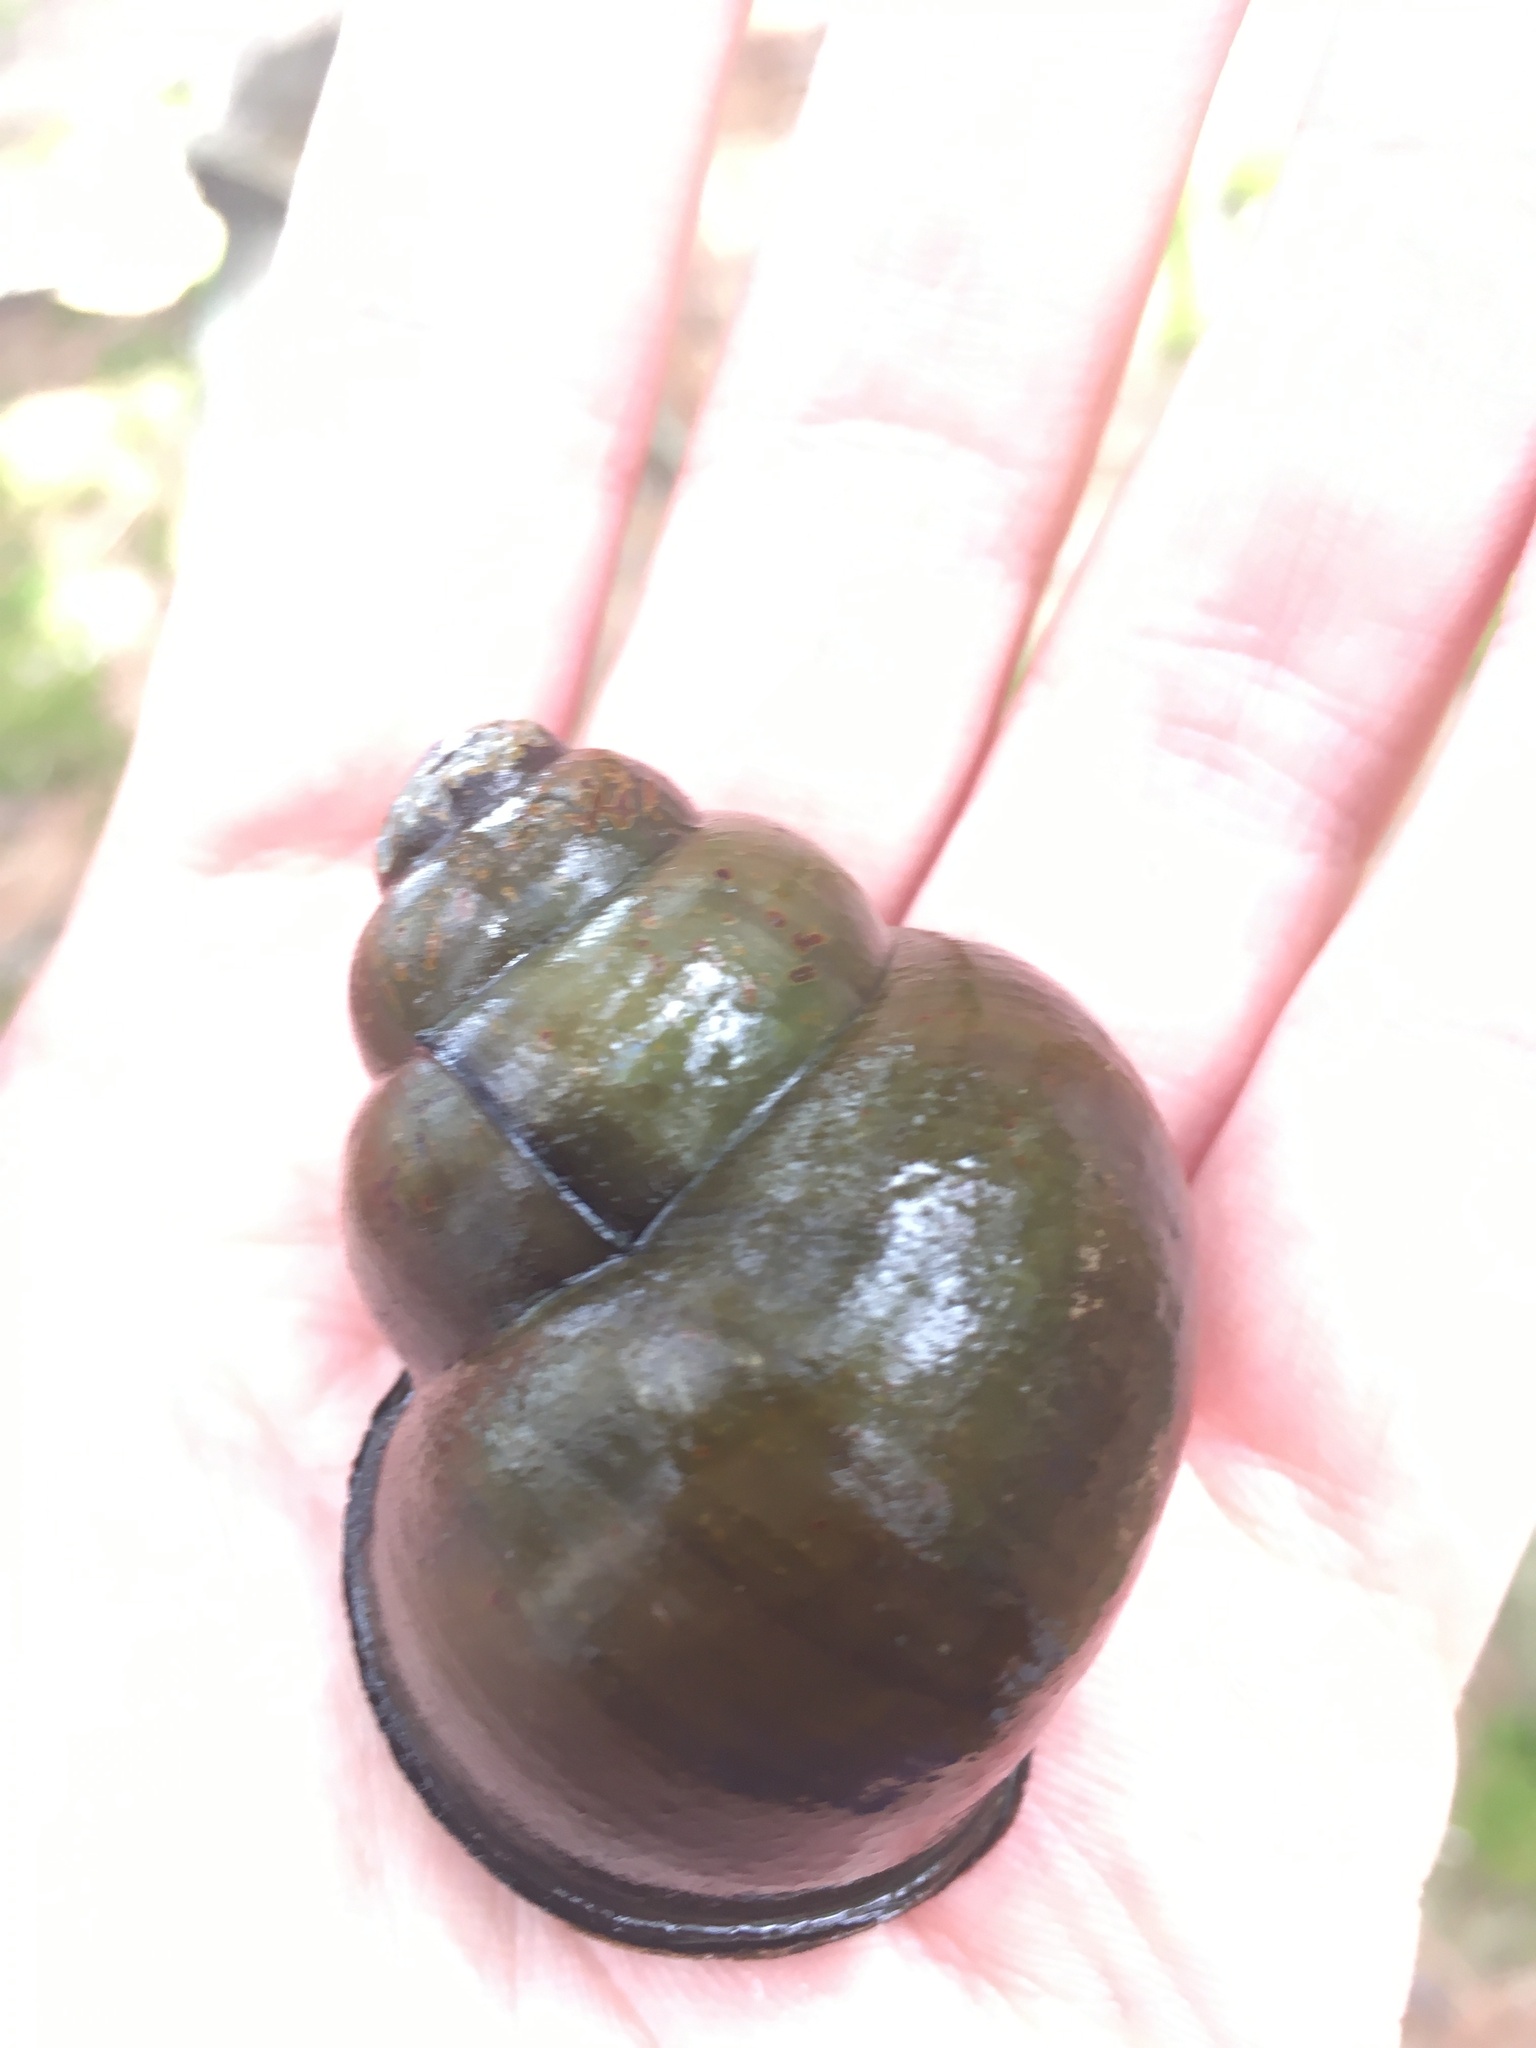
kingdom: Animalia
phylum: Mollusca
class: Gastropoda
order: Architaenioglossa
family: Viviparidae
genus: Cipangopaludina
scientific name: Cipangopaludina chinensis
